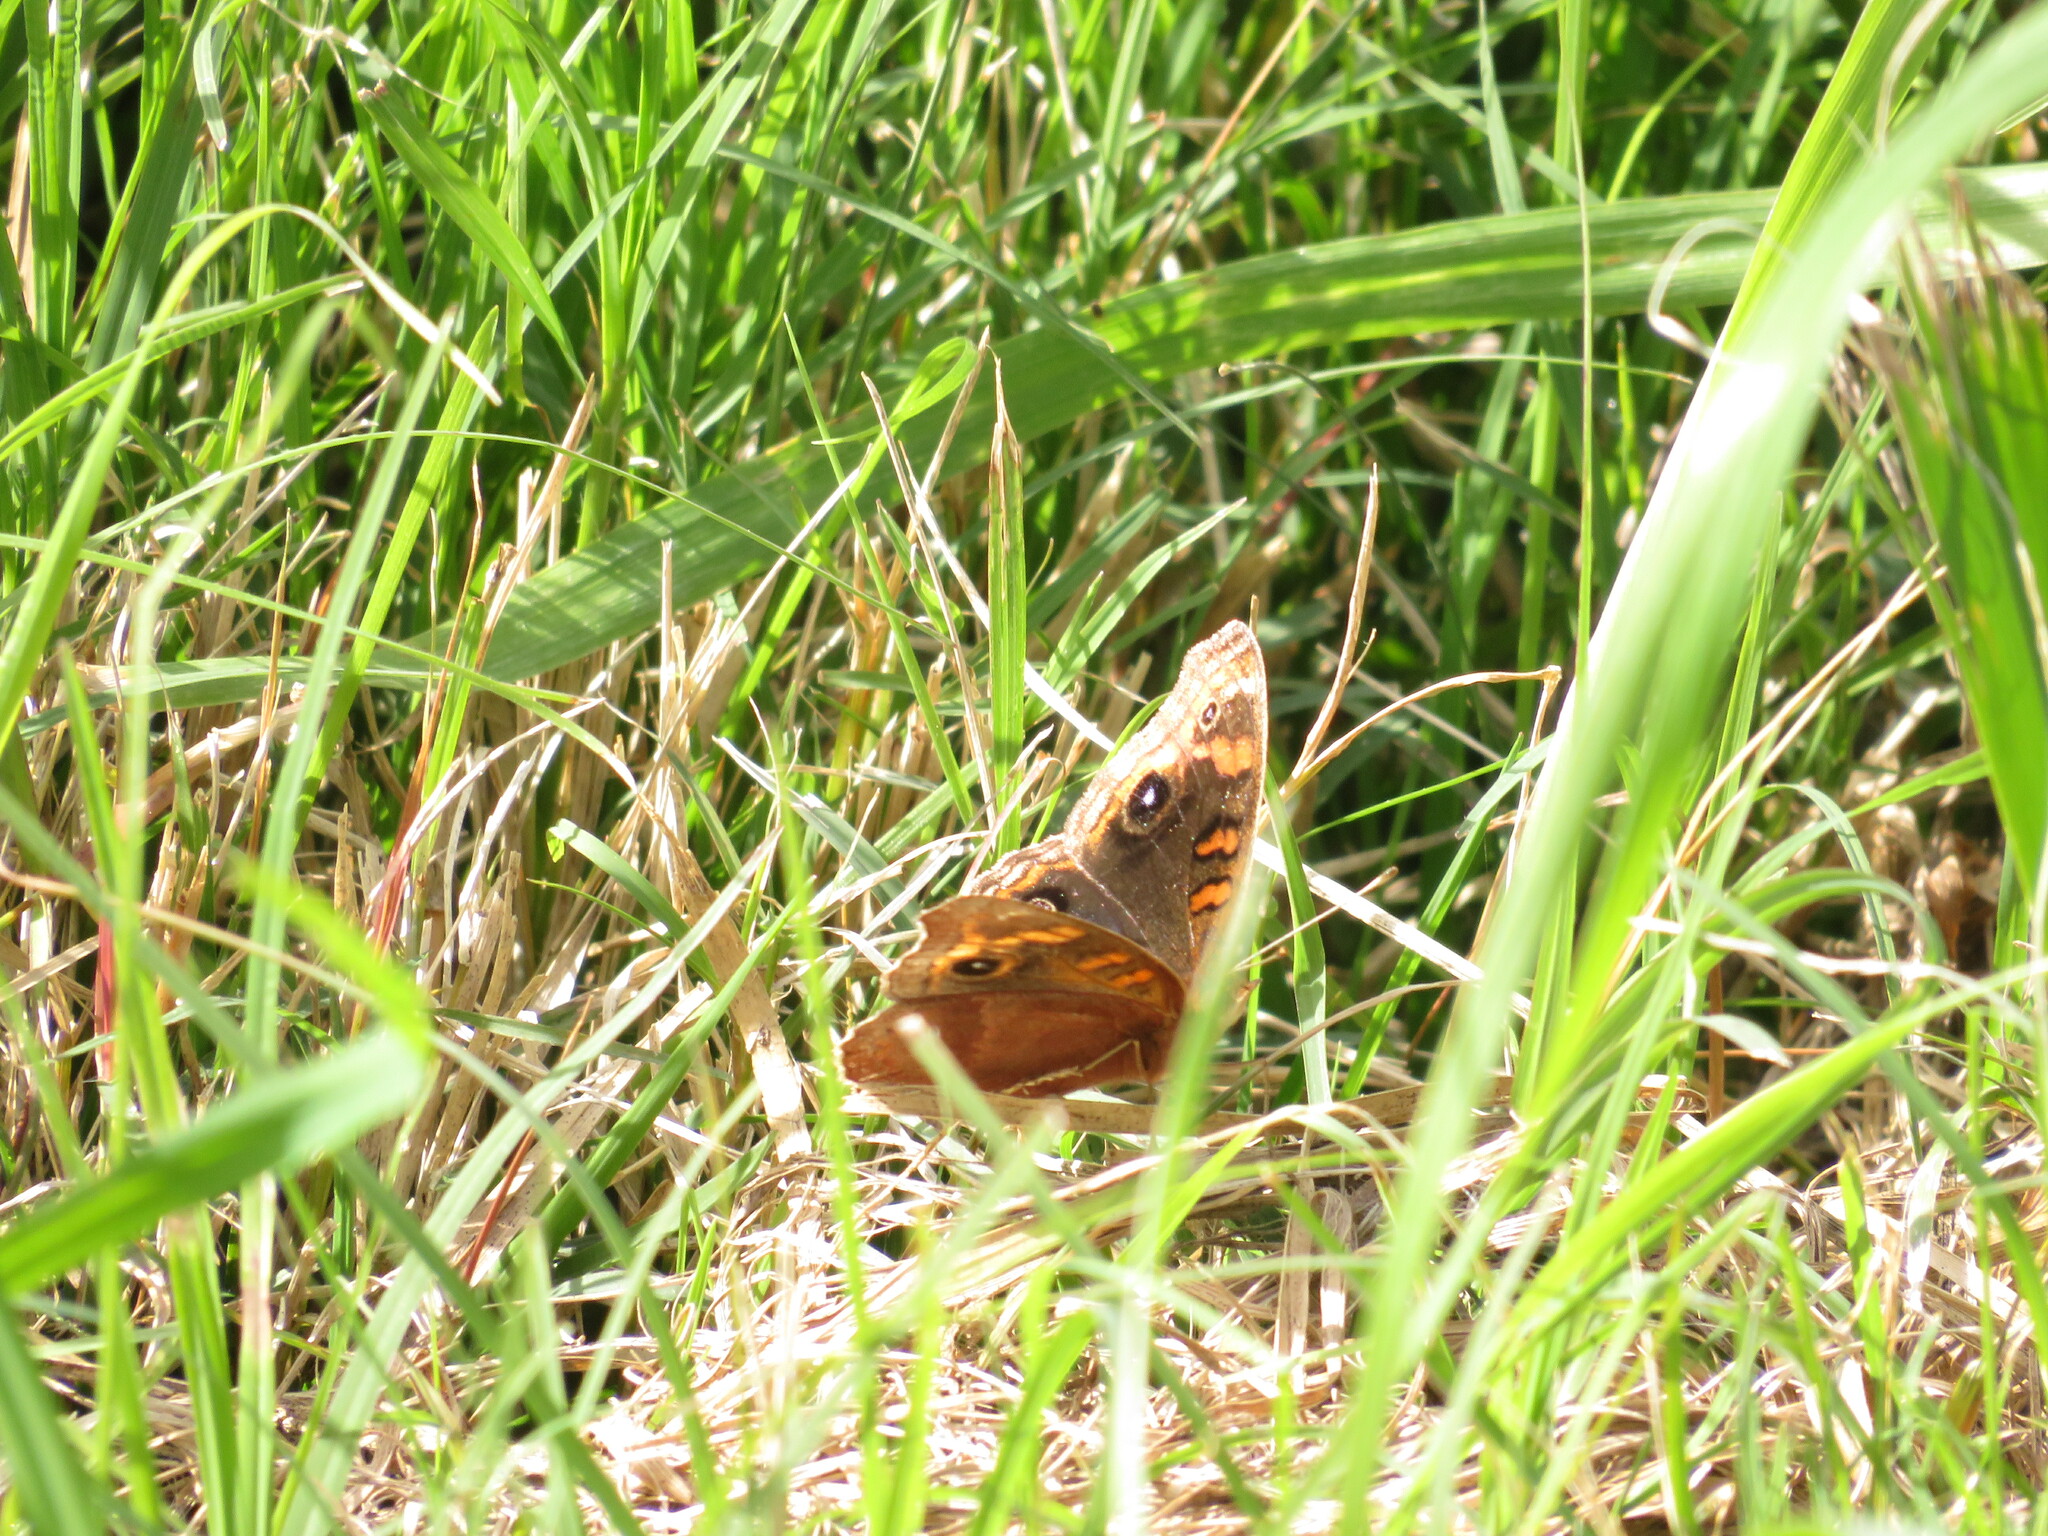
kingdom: Animalia
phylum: Arthropoda
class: Insecta
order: Lepidoptera
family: Nymphalidae
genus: Junonia
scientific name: Junonia lavinia
